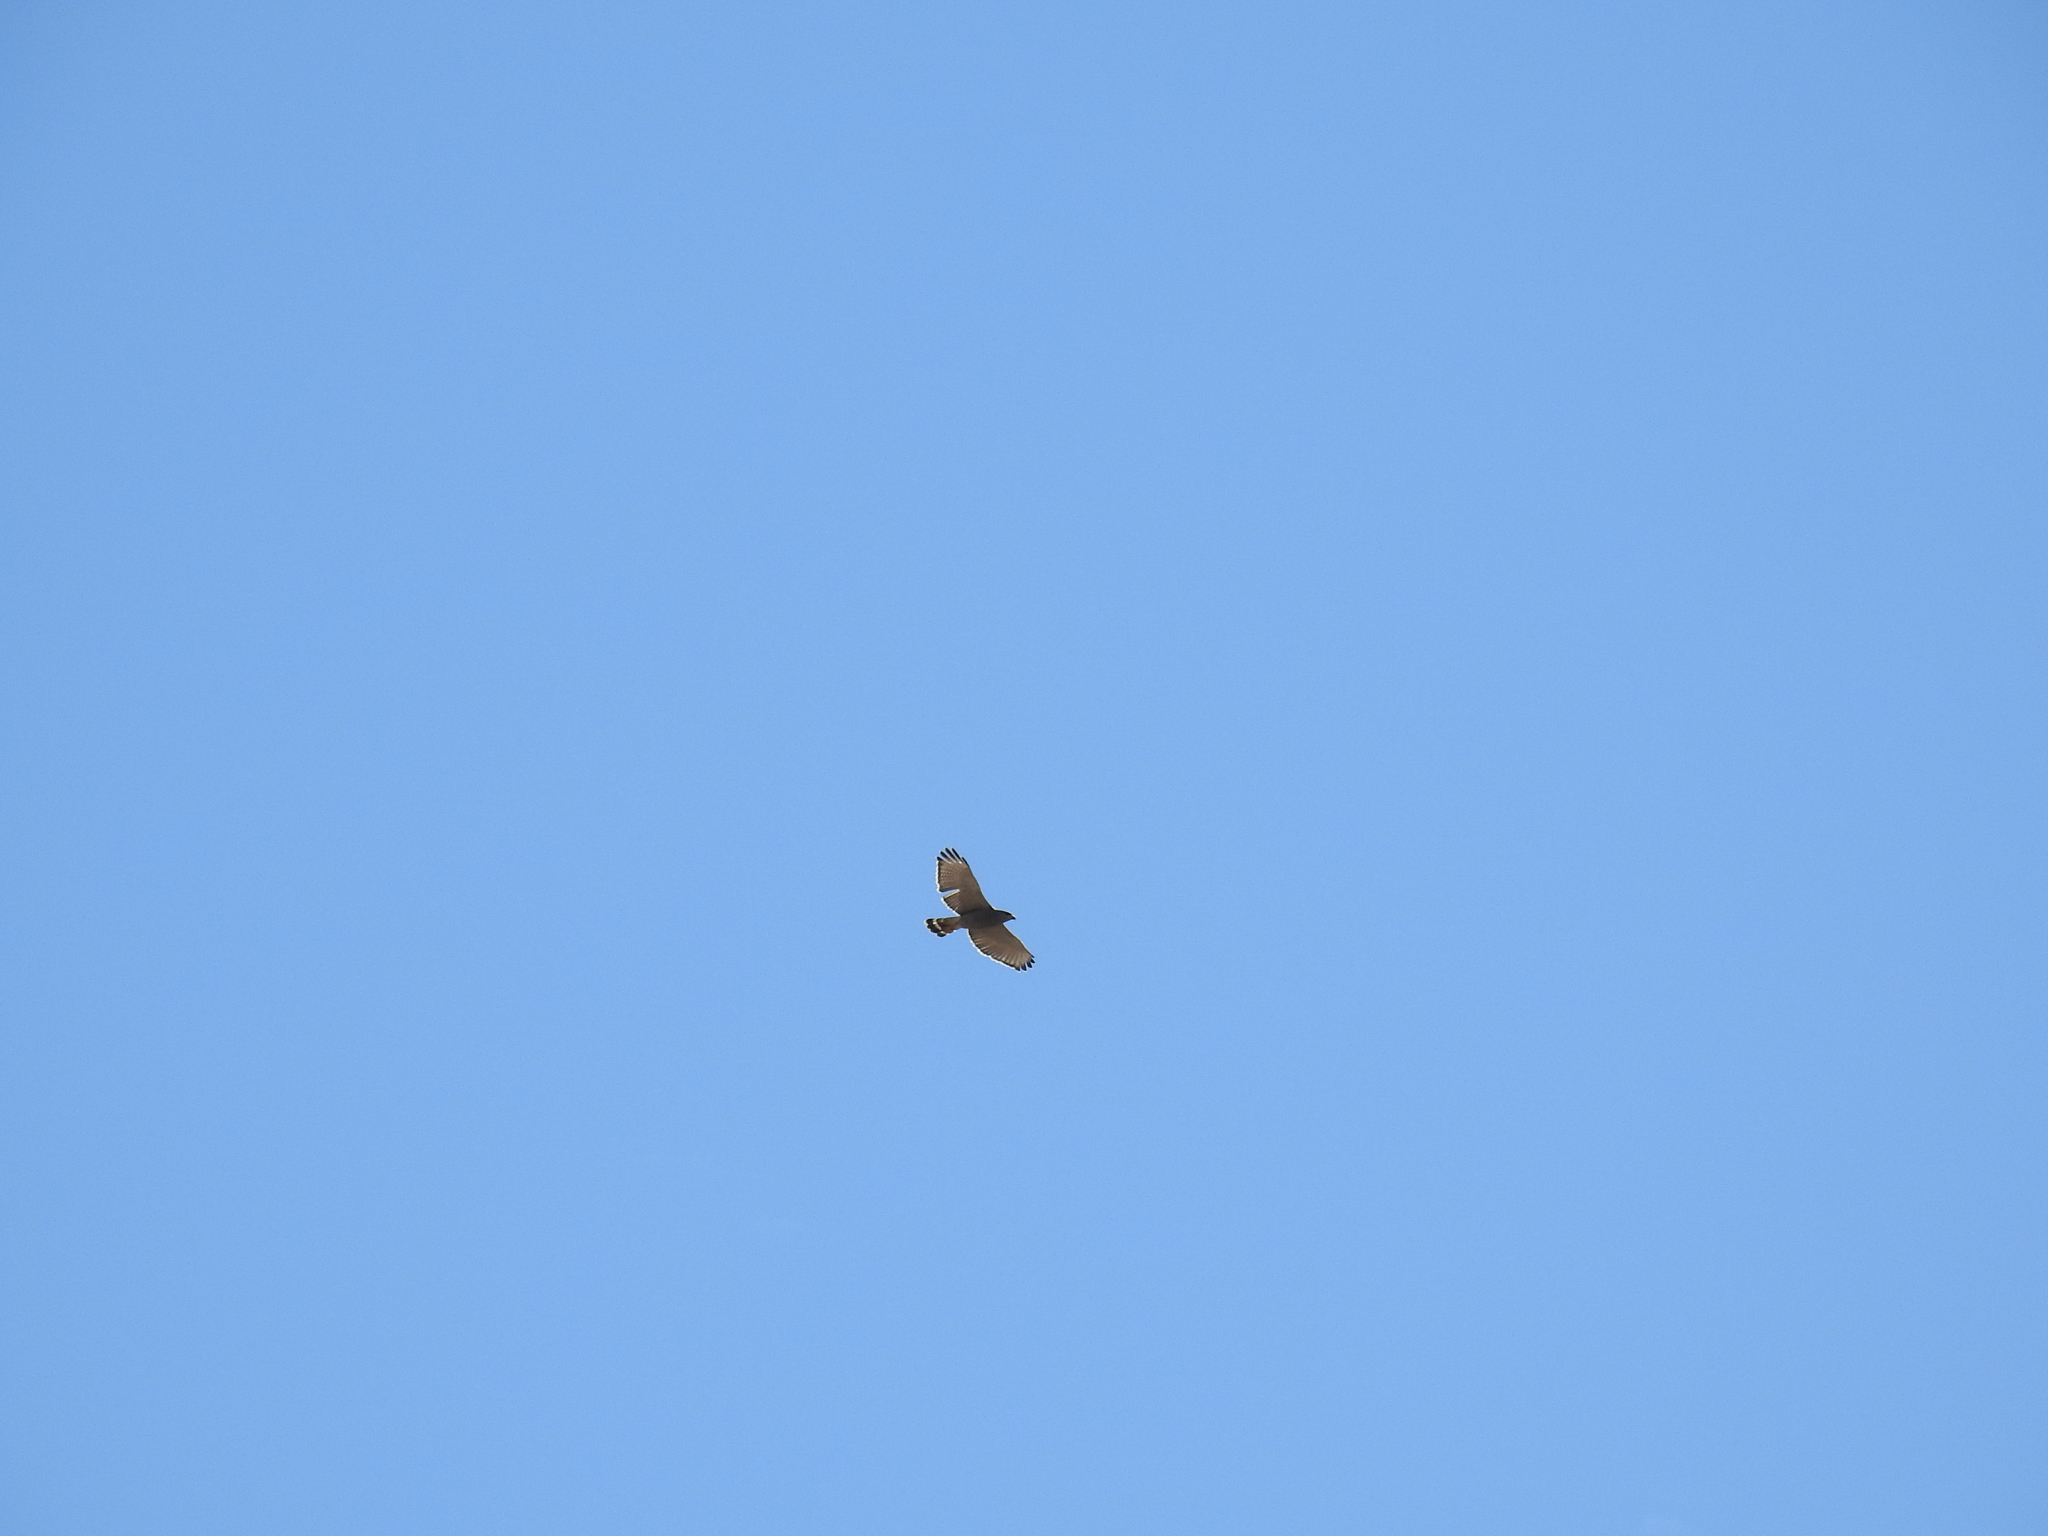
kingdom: Animalia
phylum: Chordata
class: Aves
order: Accipitriformes
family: Accipitridae
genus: Buteo
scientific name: Buteo nitidus
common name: Grey-lined hawk
